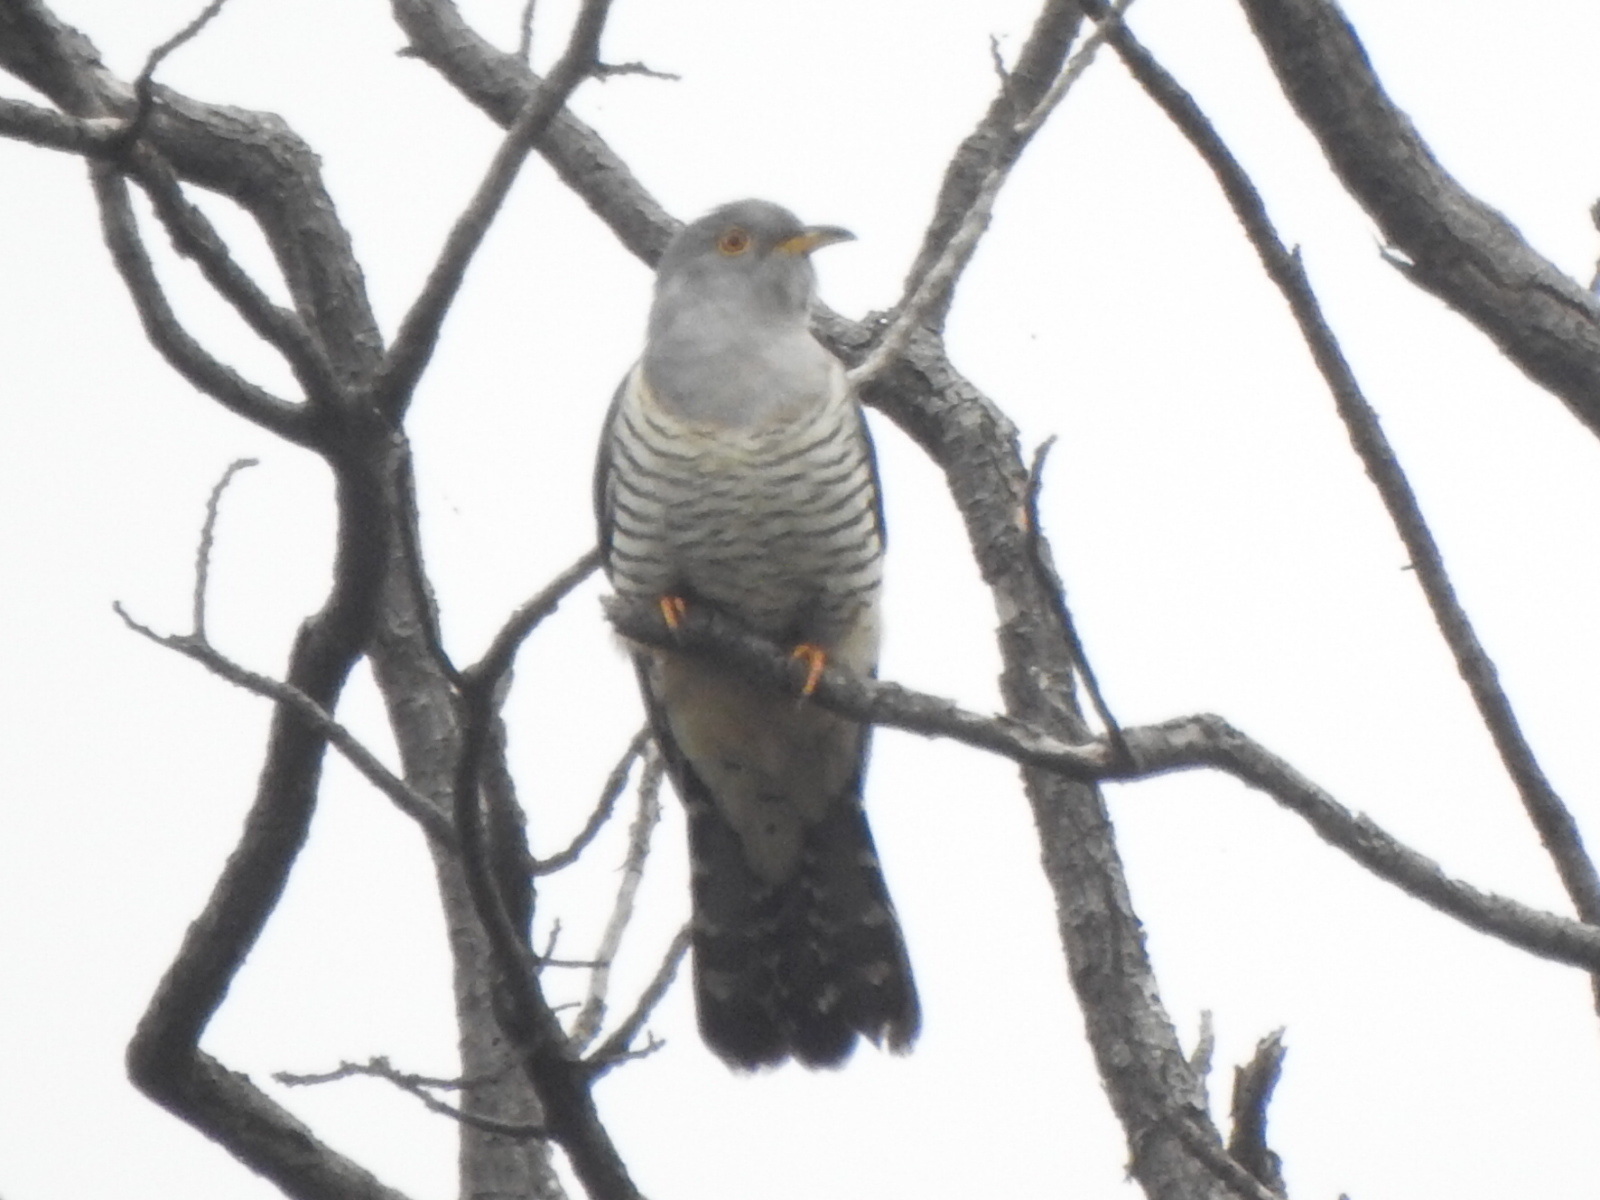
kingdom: Animalia
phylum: Chordata
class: Aves
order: Cuculiformes
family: Cuculidae
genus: Cuculus
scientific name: Cuculus optatus
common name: Oriental cuckoo
